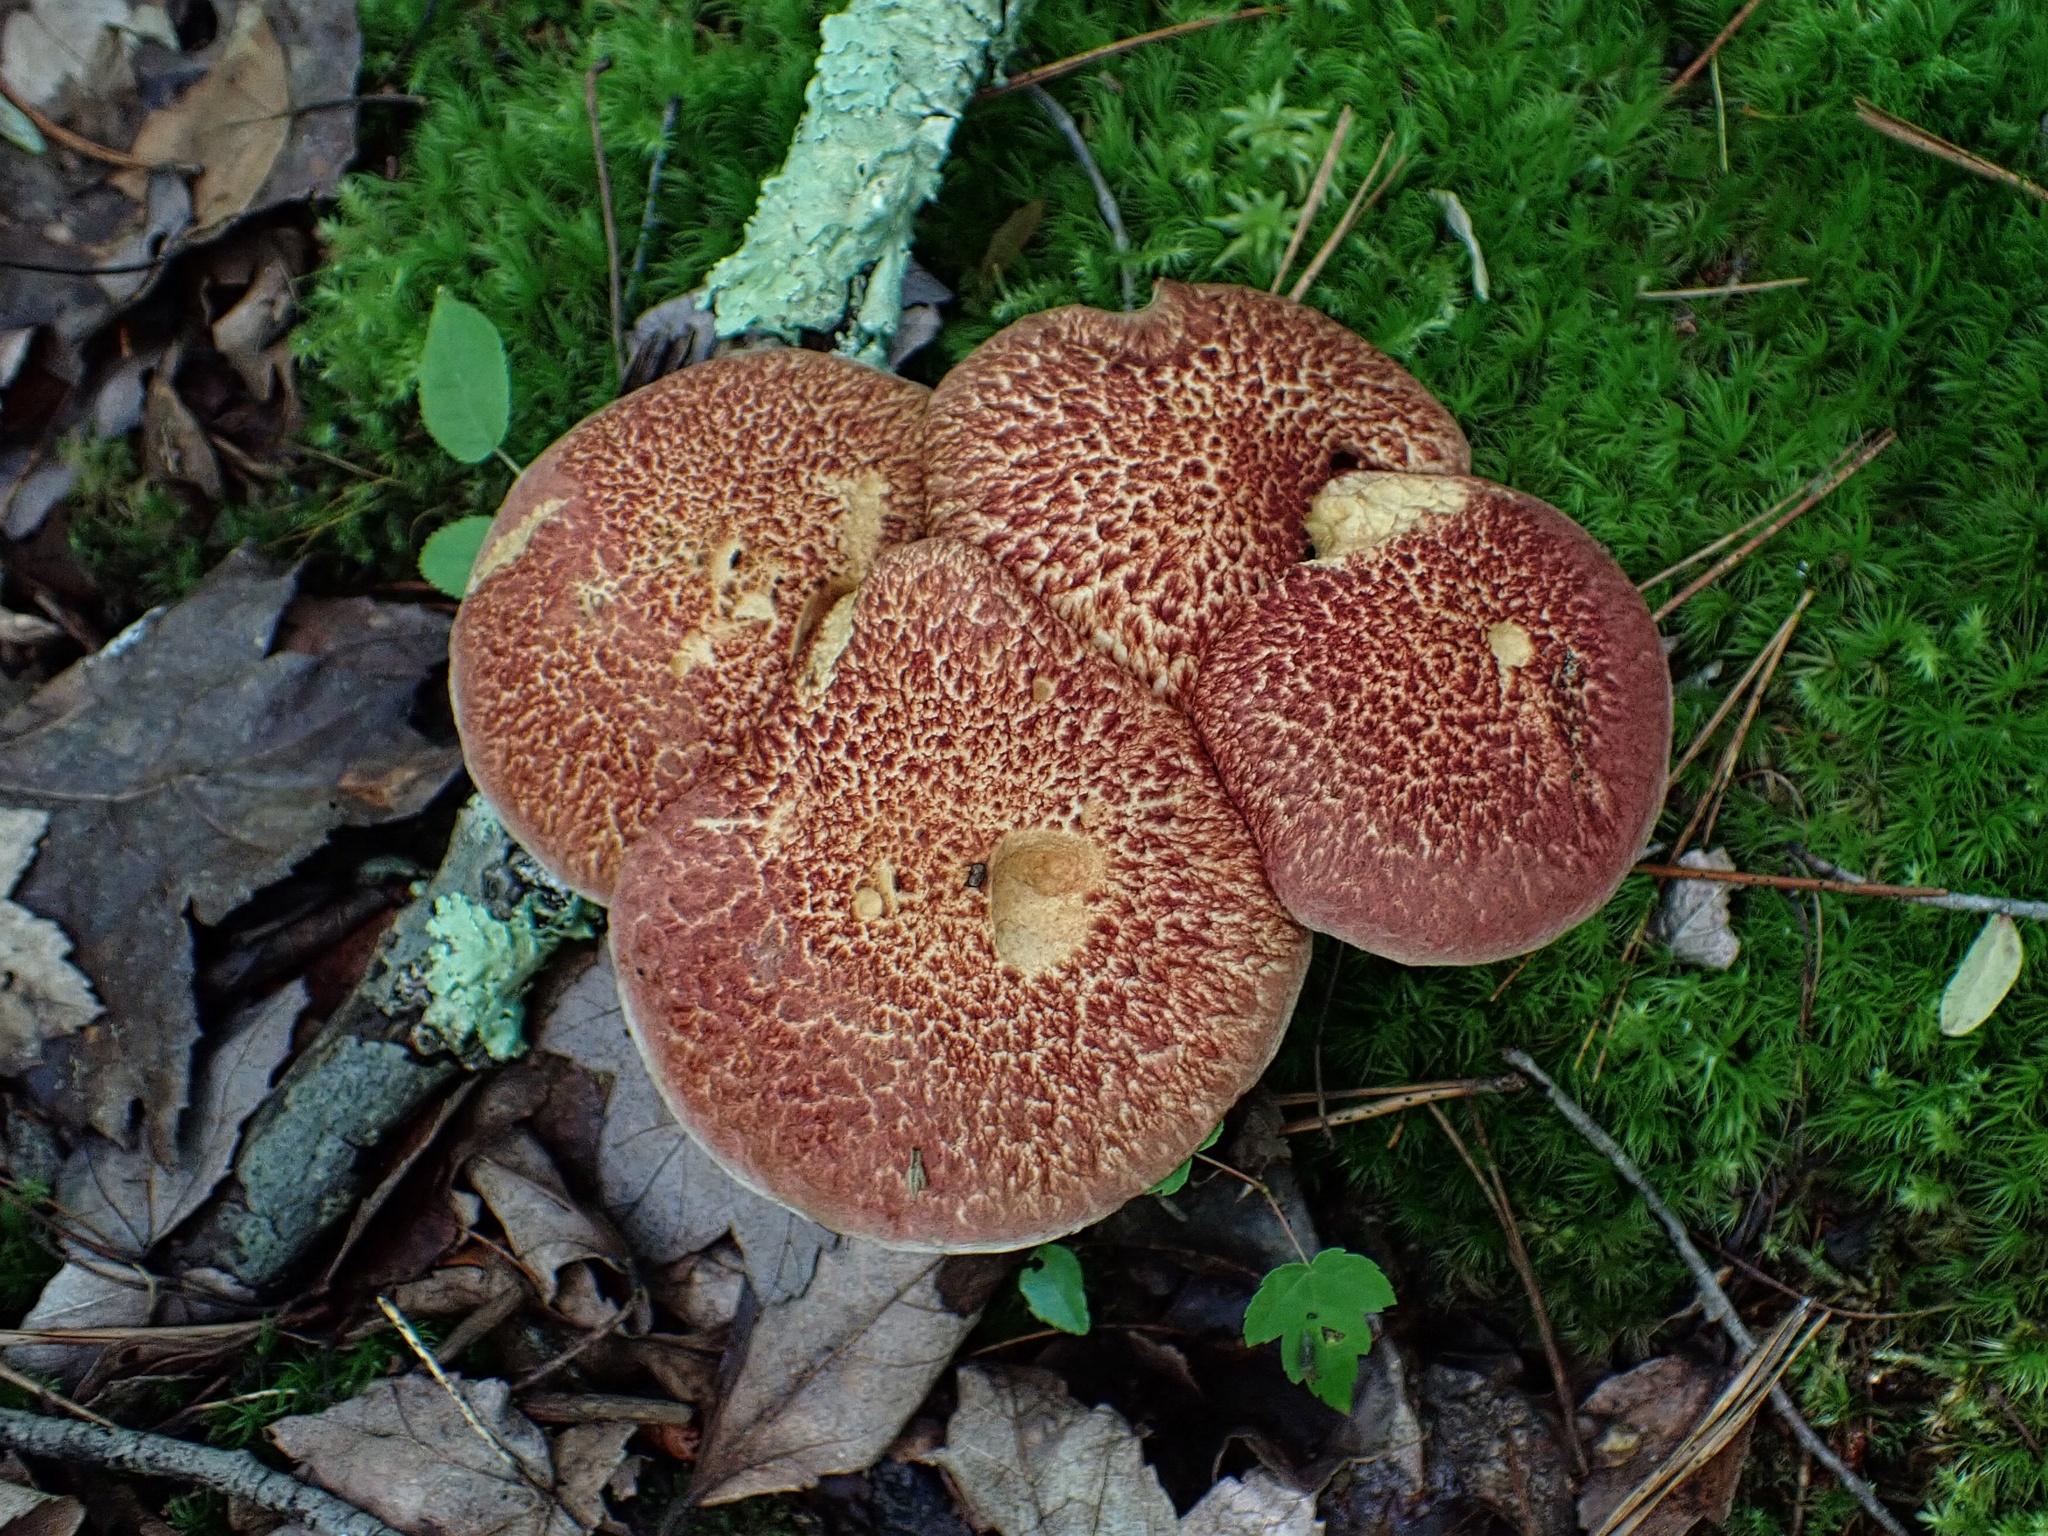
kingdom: Fungi
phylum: Basidiomycota
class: Agaricomycetes
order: Boletales
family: Suillaceae
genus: Suillus
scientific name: Suillus spraguei
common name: Painted suillus
